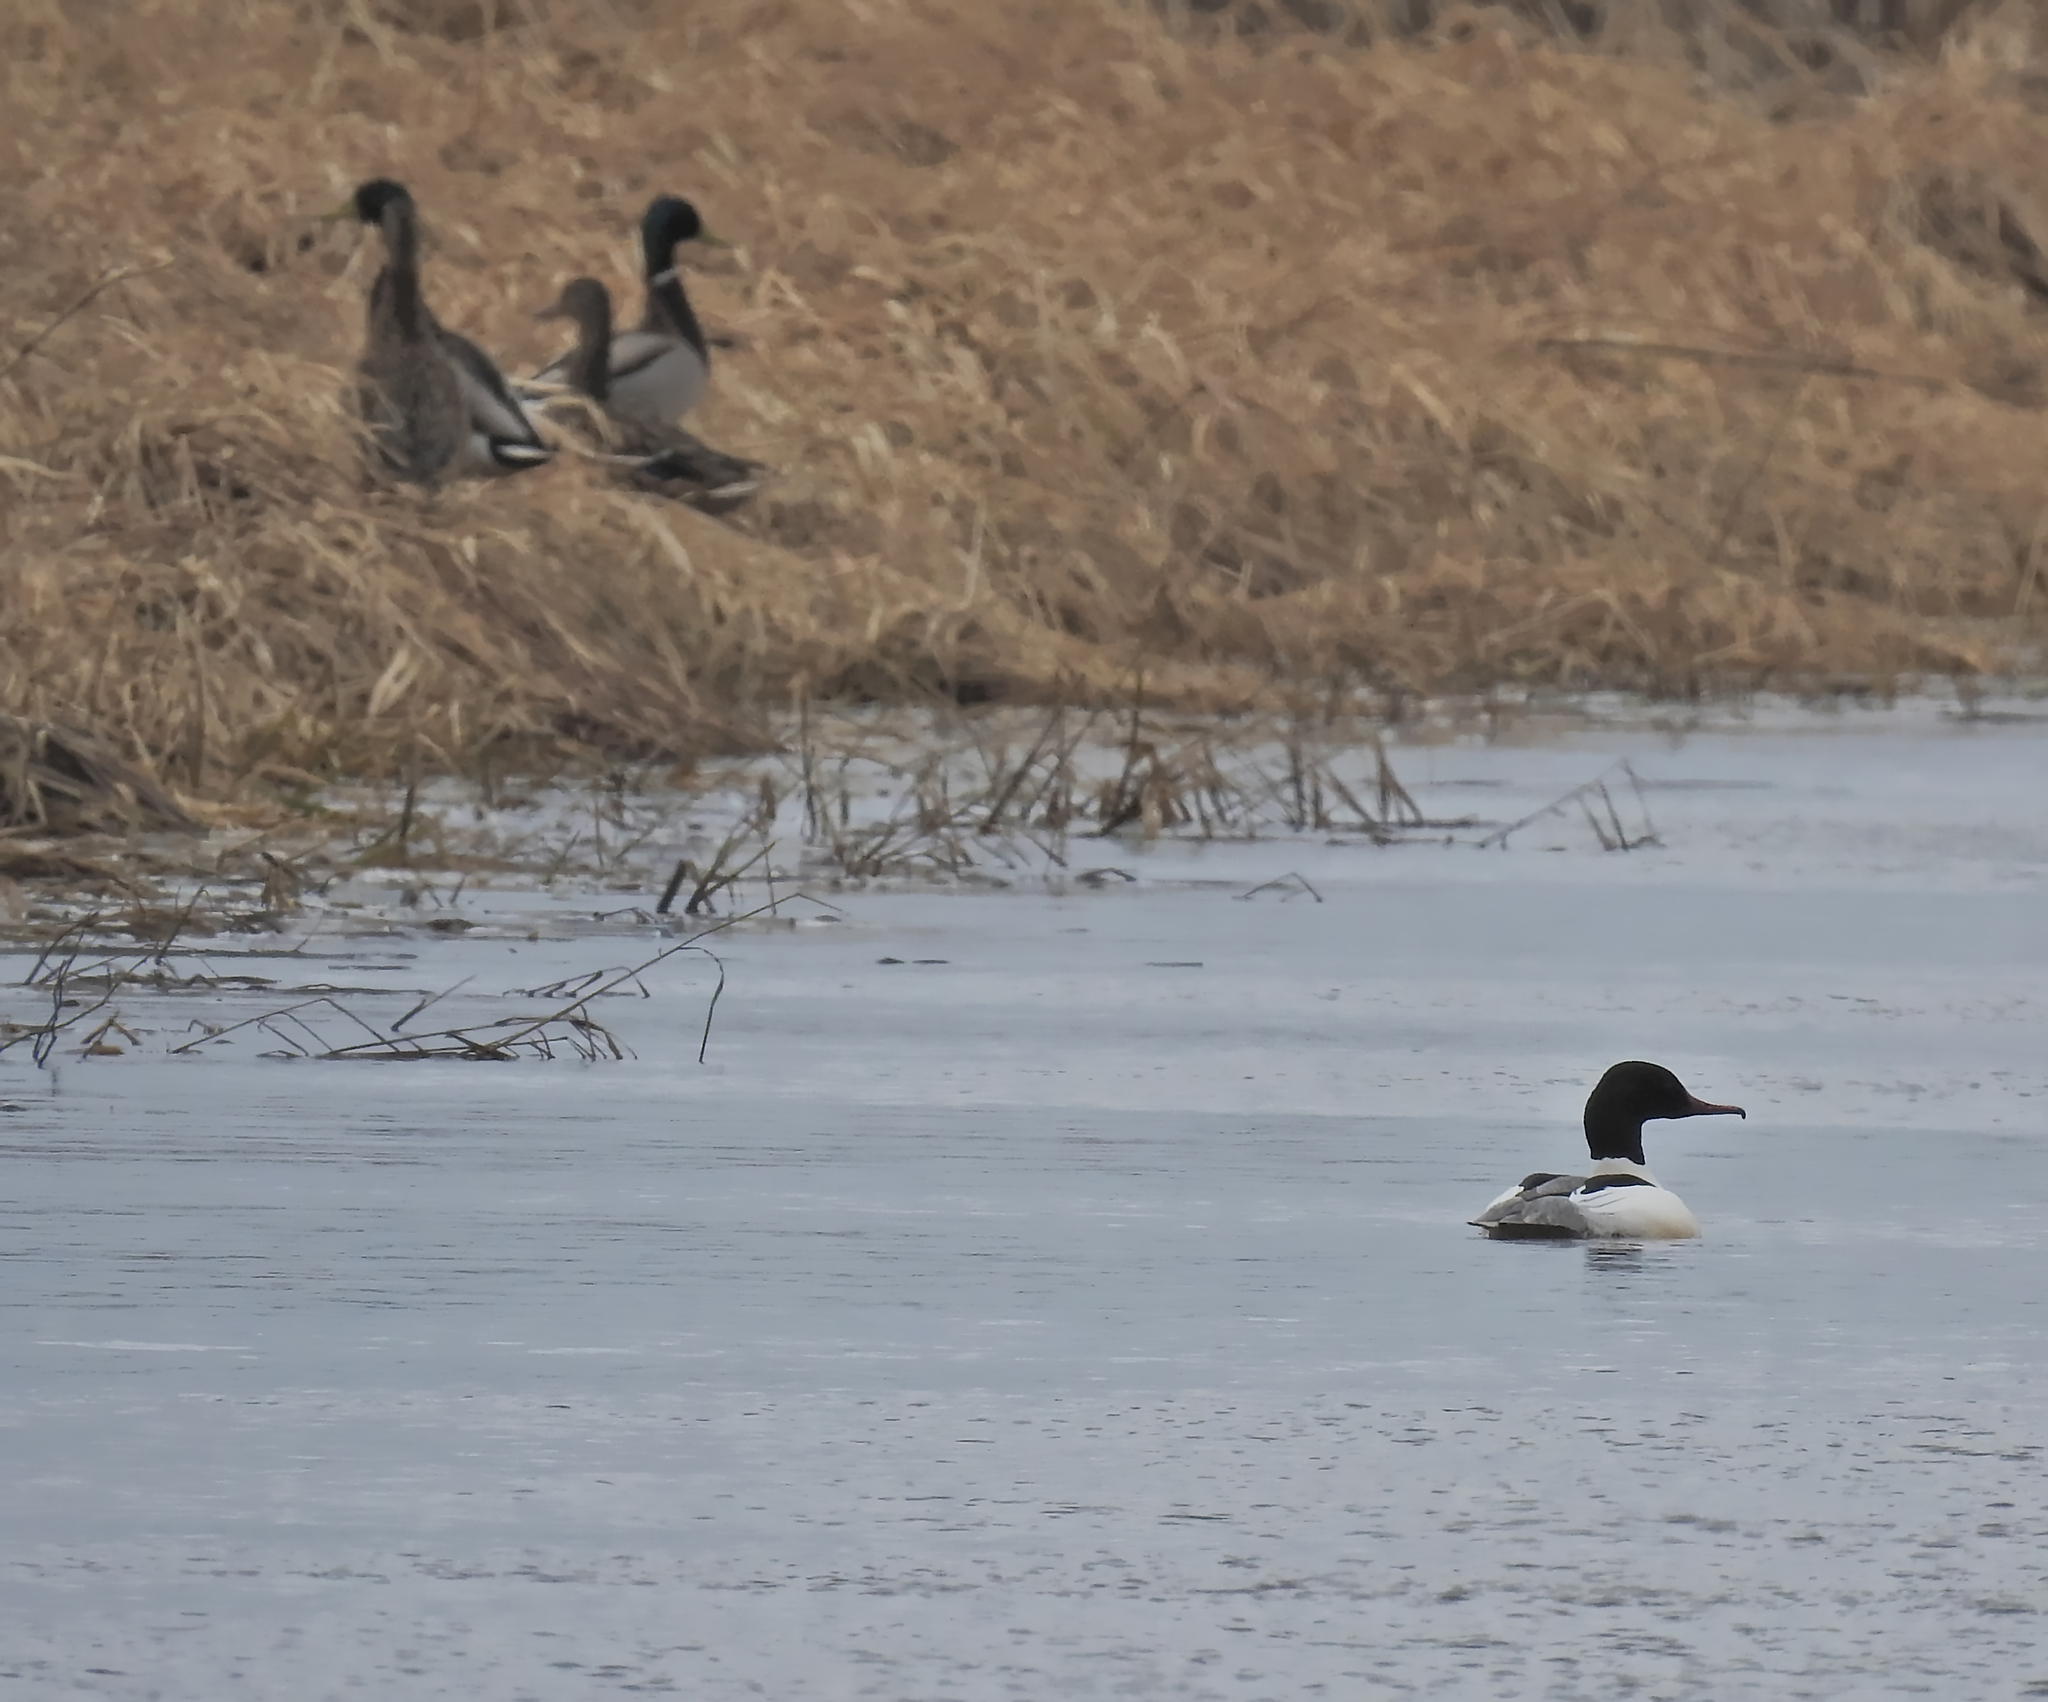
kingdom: Animalia
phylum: Chordata
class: Aves
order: Anseriformes
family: Anatidae
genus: Mergus
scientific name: Mergus merganser
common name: Common merganser
